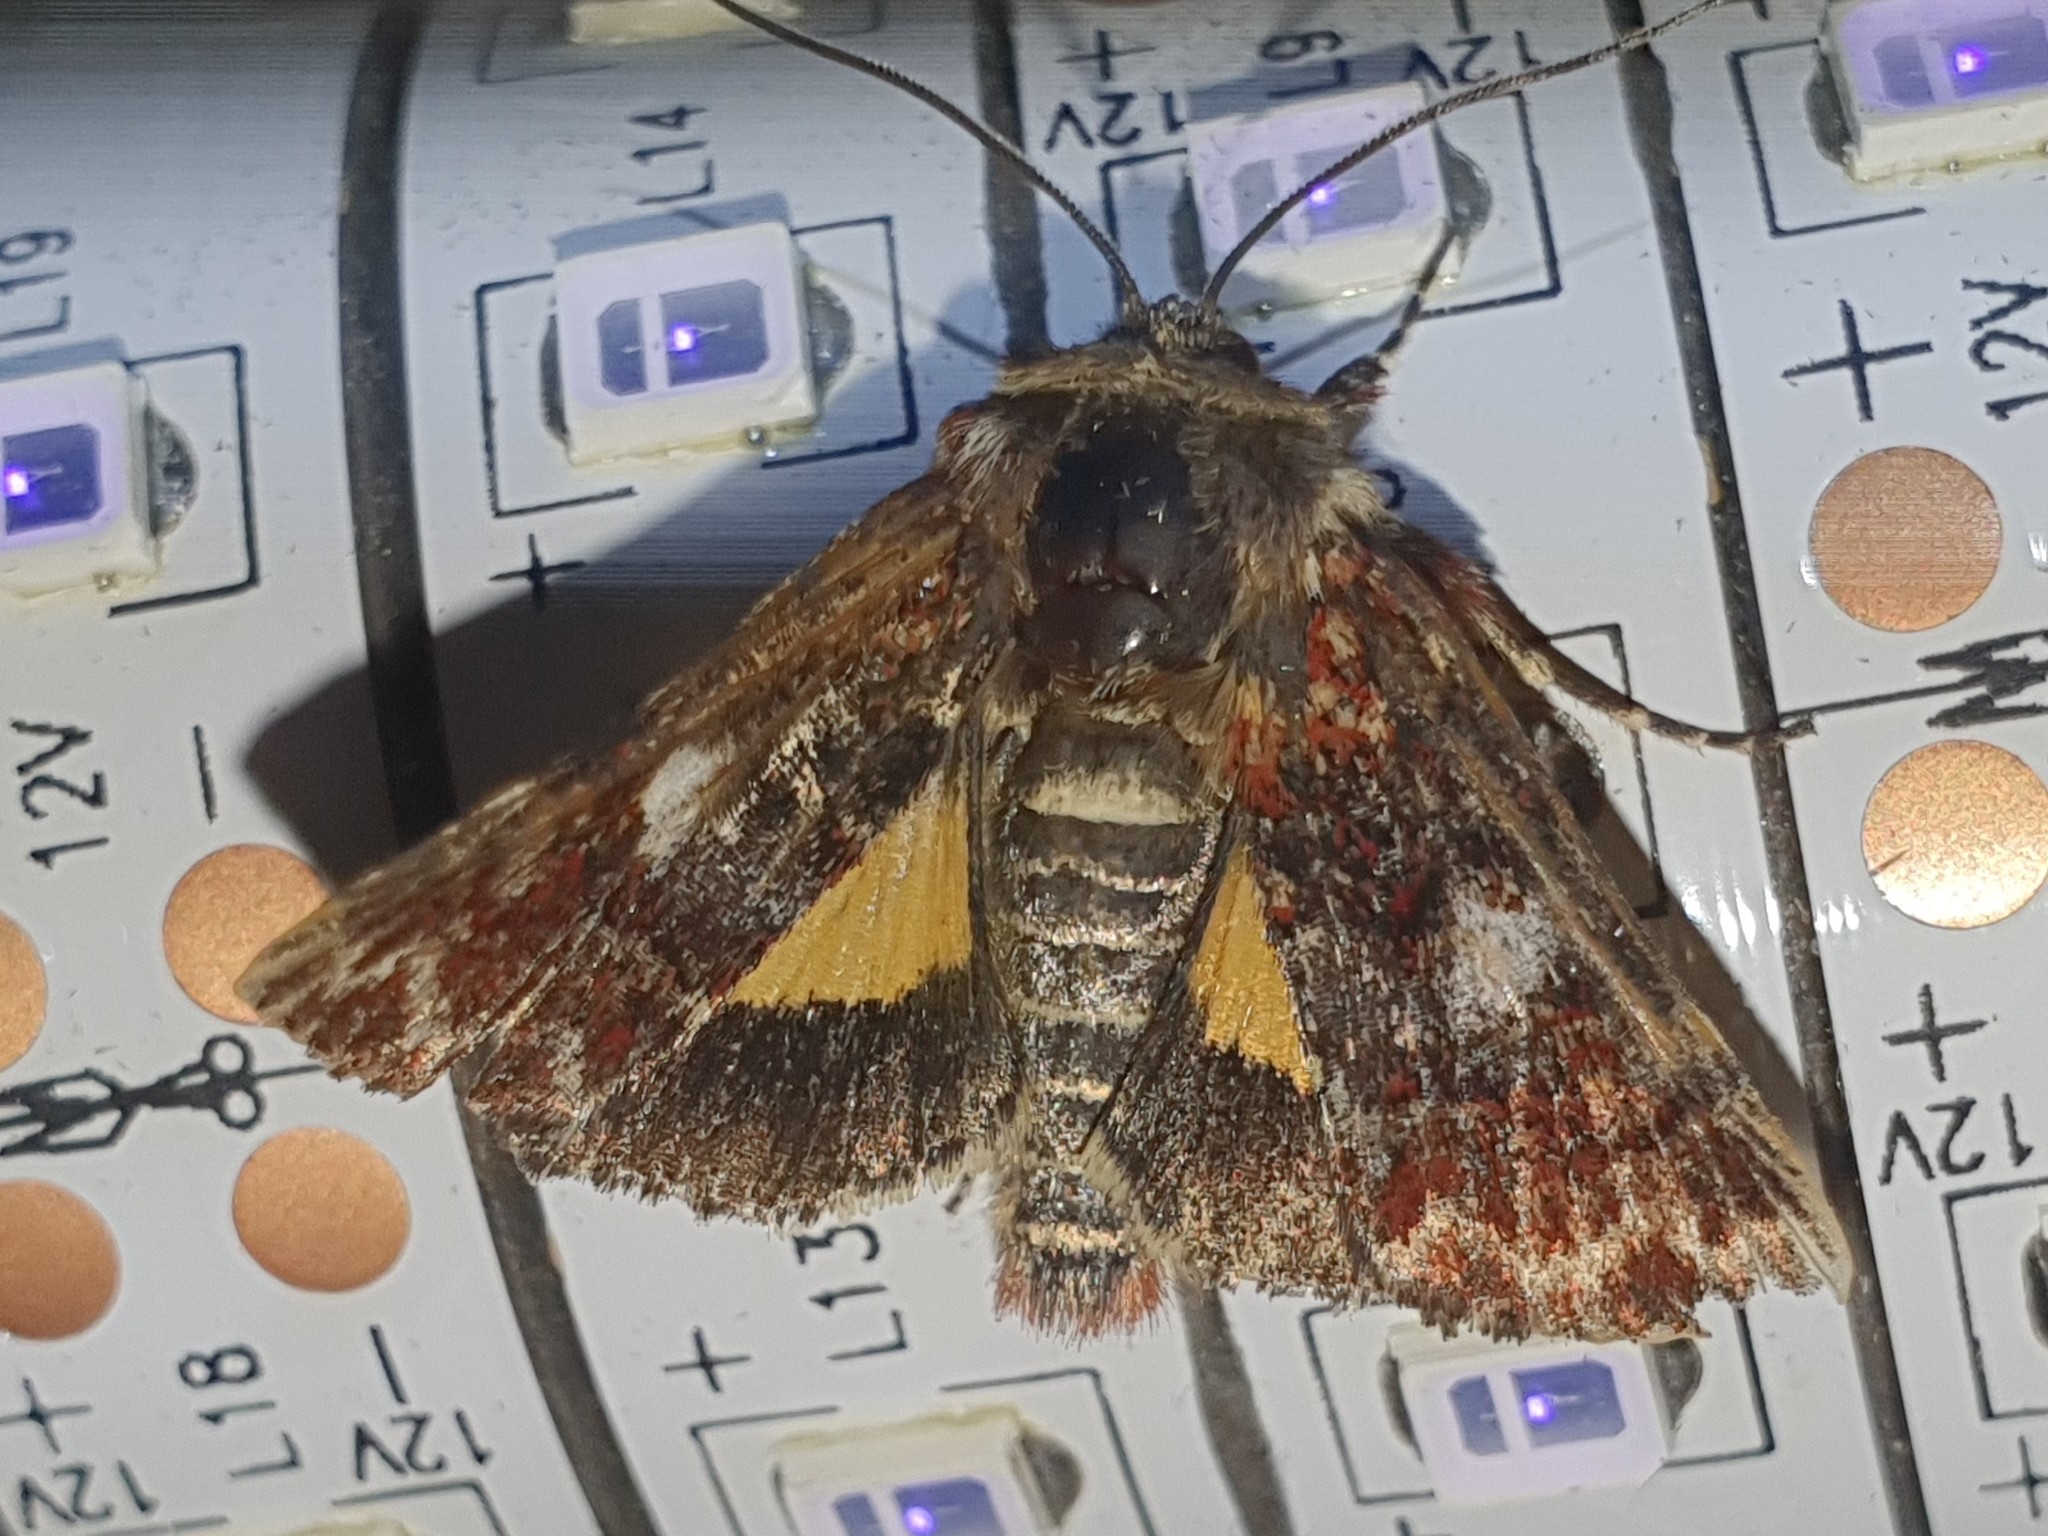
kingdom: Animalia
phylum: Arthropoda
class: Insecta
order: Lepidoptera
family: Noctuidae
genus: Anarta
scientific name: Anarta myrtilli
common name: Beautiful yellow underwing
